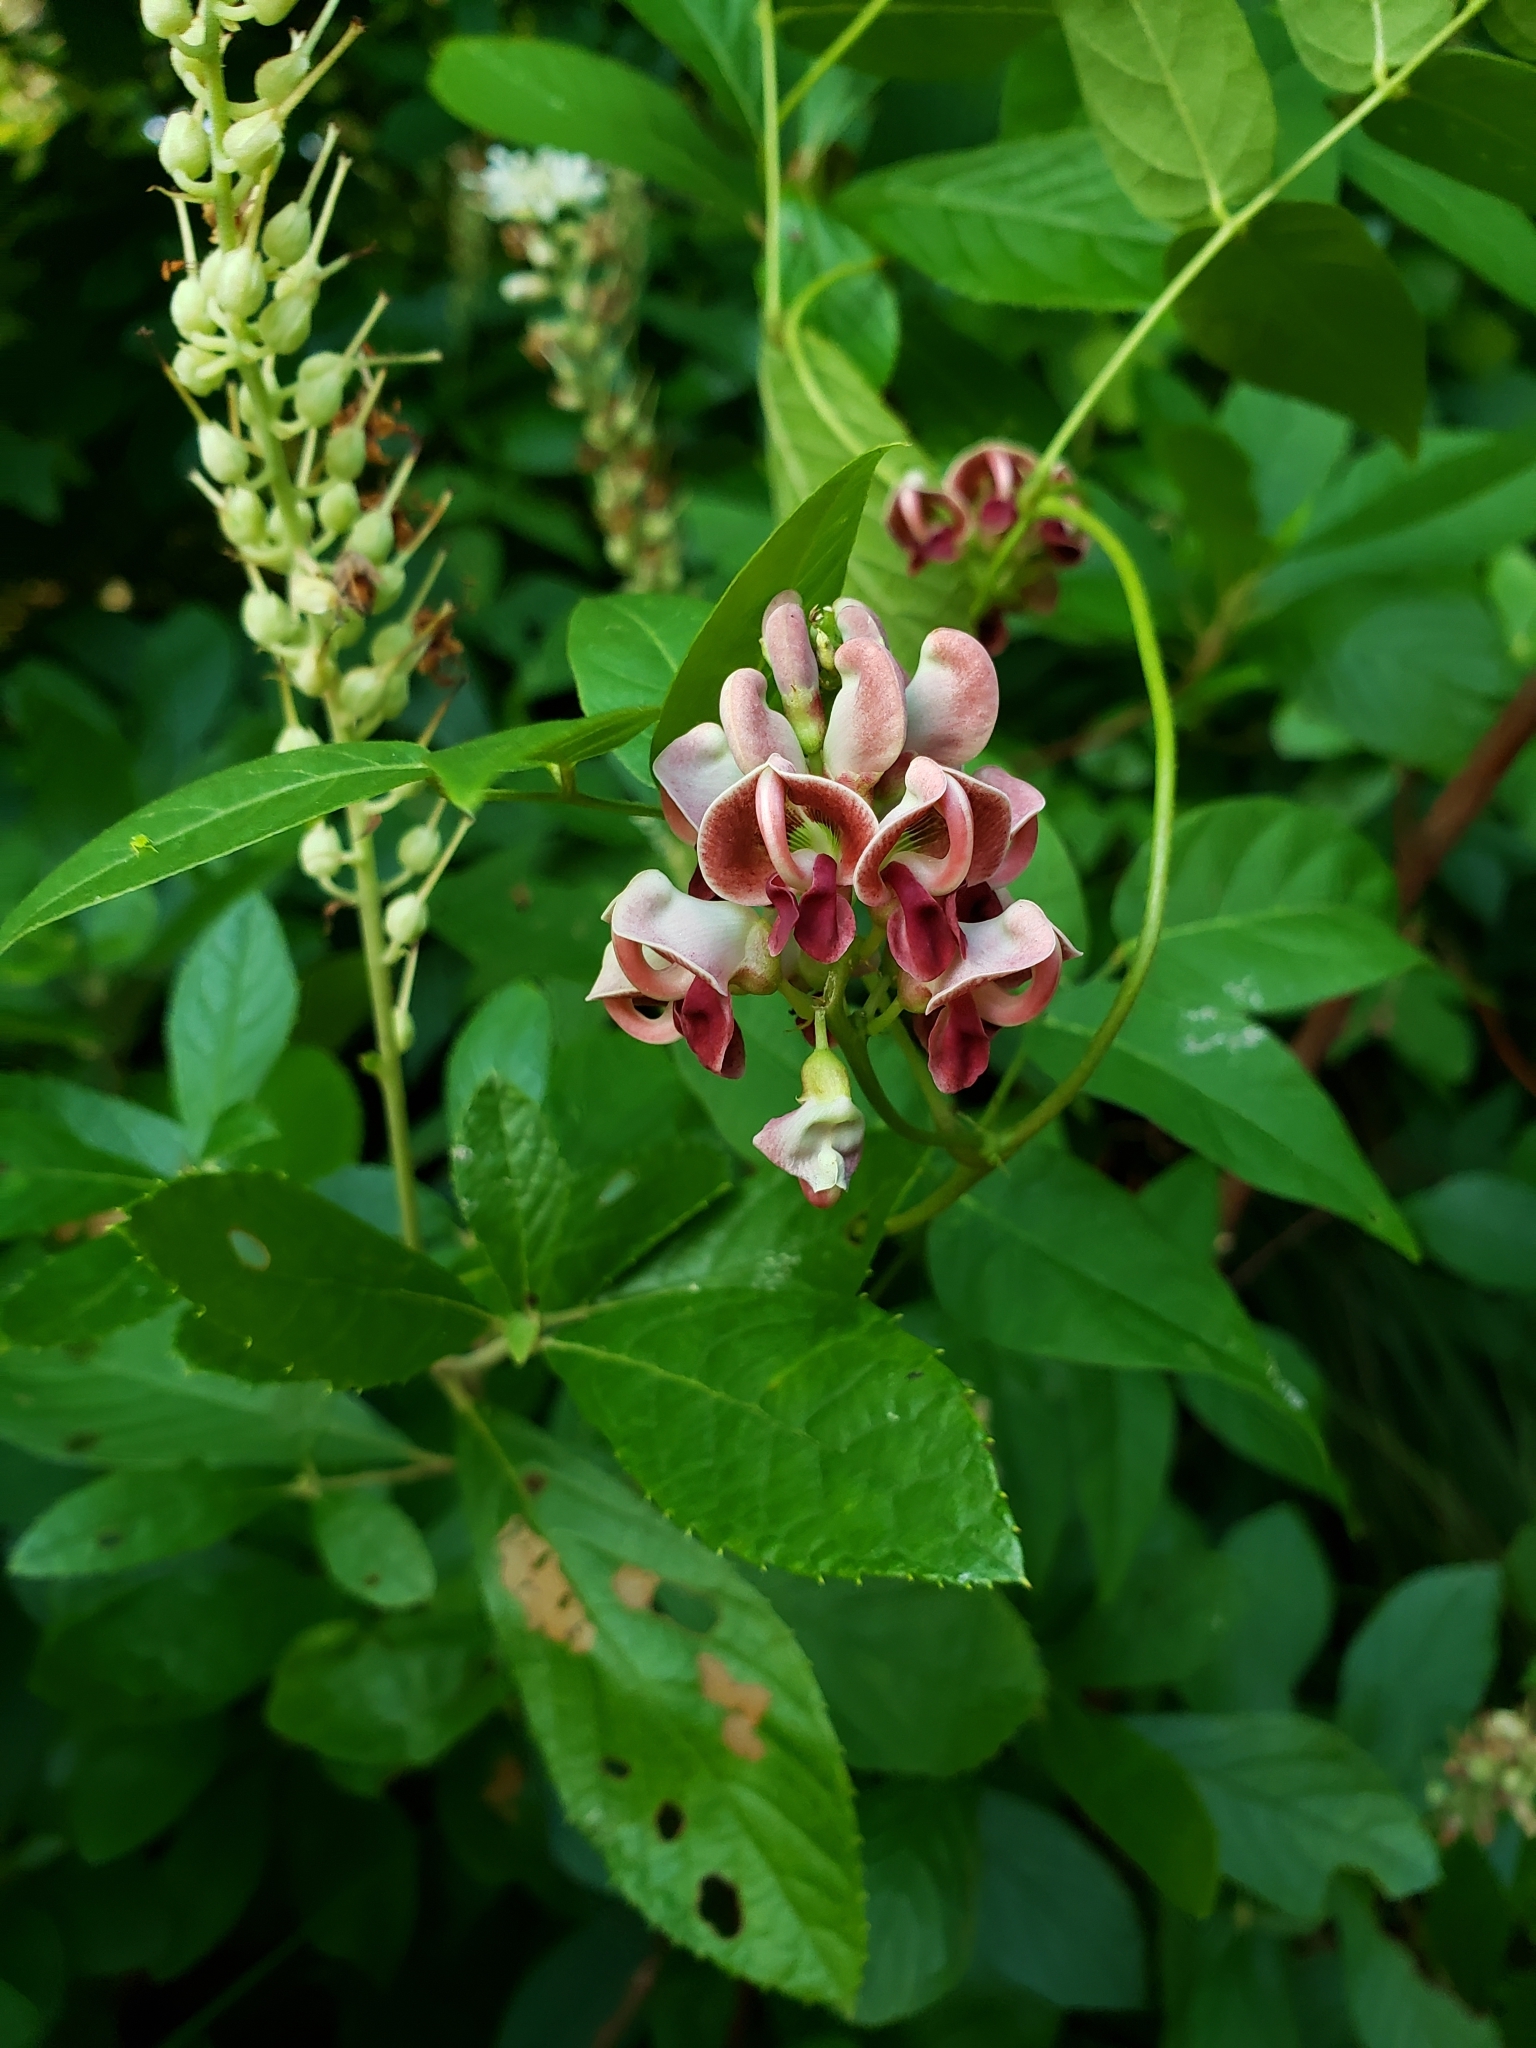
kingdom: Plantae
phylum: Tracheophyta
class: Magnoliopsida
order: Fabales
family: Fabaceae
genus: Apios
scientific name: Apios americana
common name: American potato-bean
